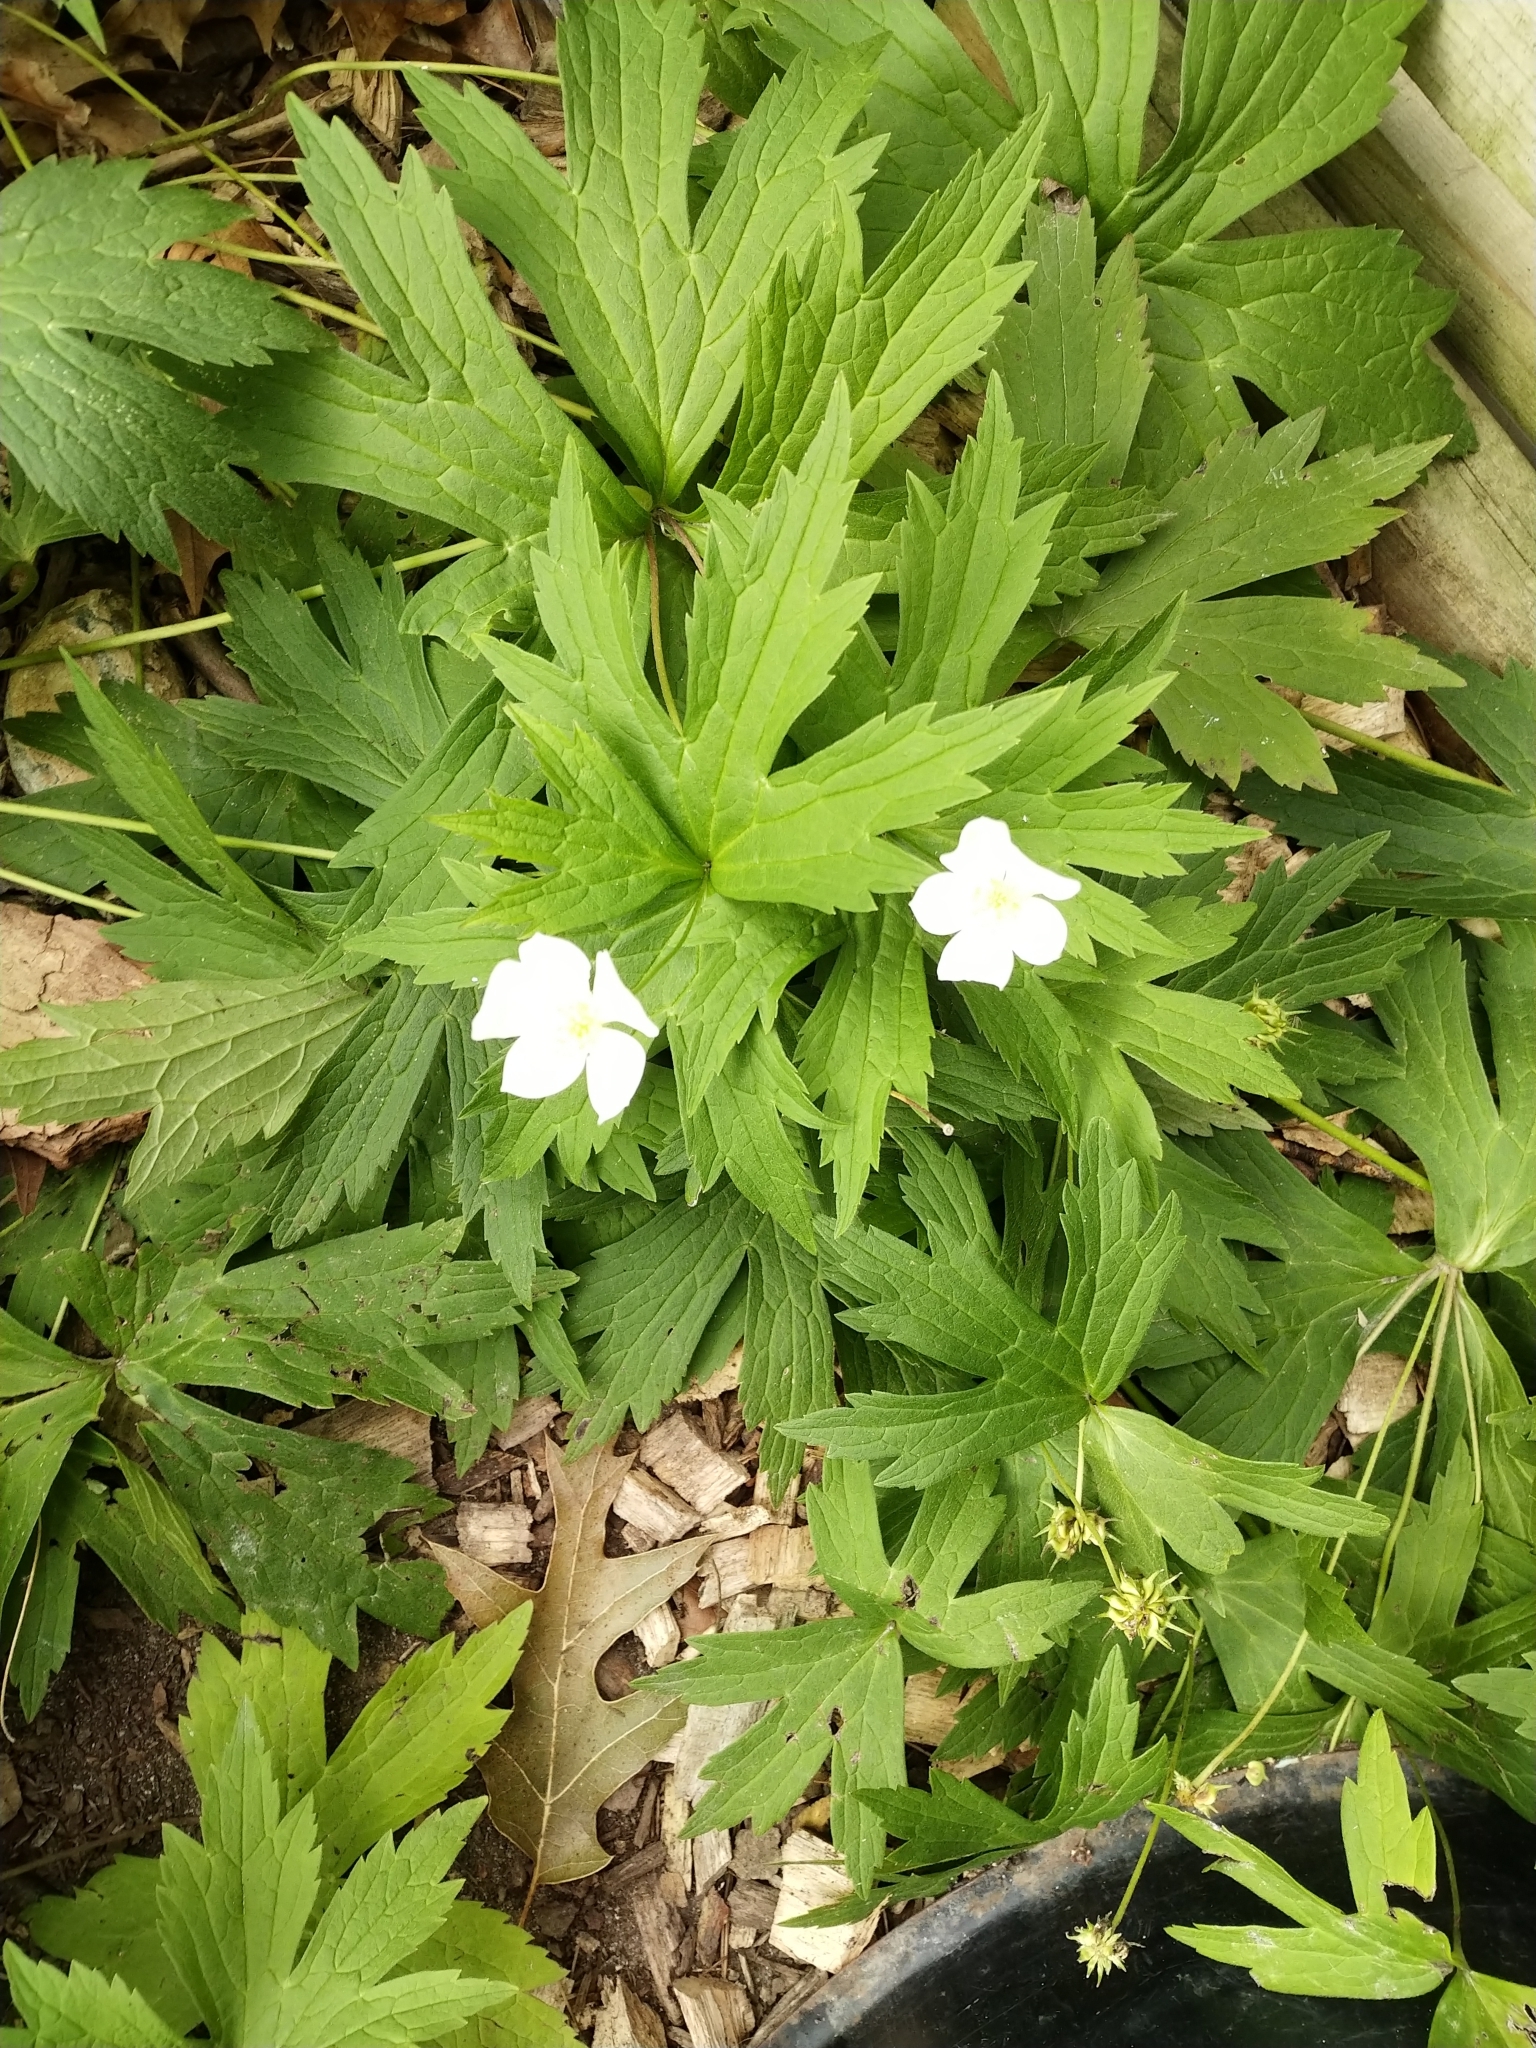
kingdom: Plantae
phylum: Tracheophyta
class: Magnoliopsida
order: Ranunculales
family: Ranunculaceae
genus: Anemonastrum
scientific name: Anemonastrum canadense
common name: Canada anemone
